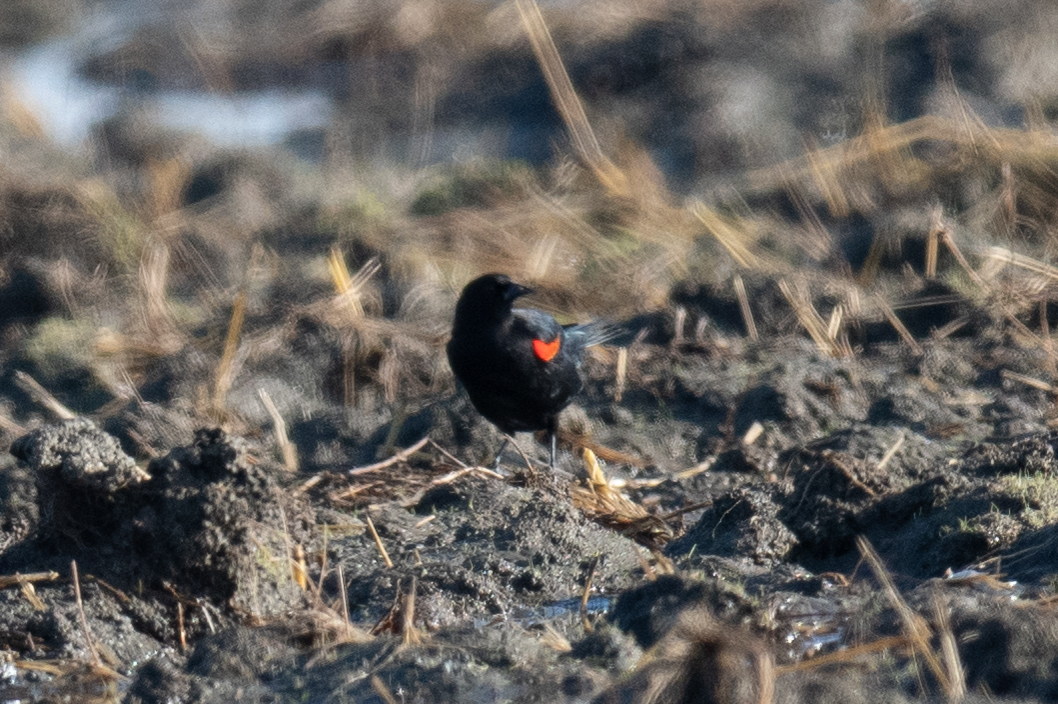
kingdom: Animalia
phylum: Chordata
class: Aves
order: Passeriformes
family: Icteridae
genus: Agelaius
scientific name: Agelaius phoeniceus
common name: Red-winged blackbird
